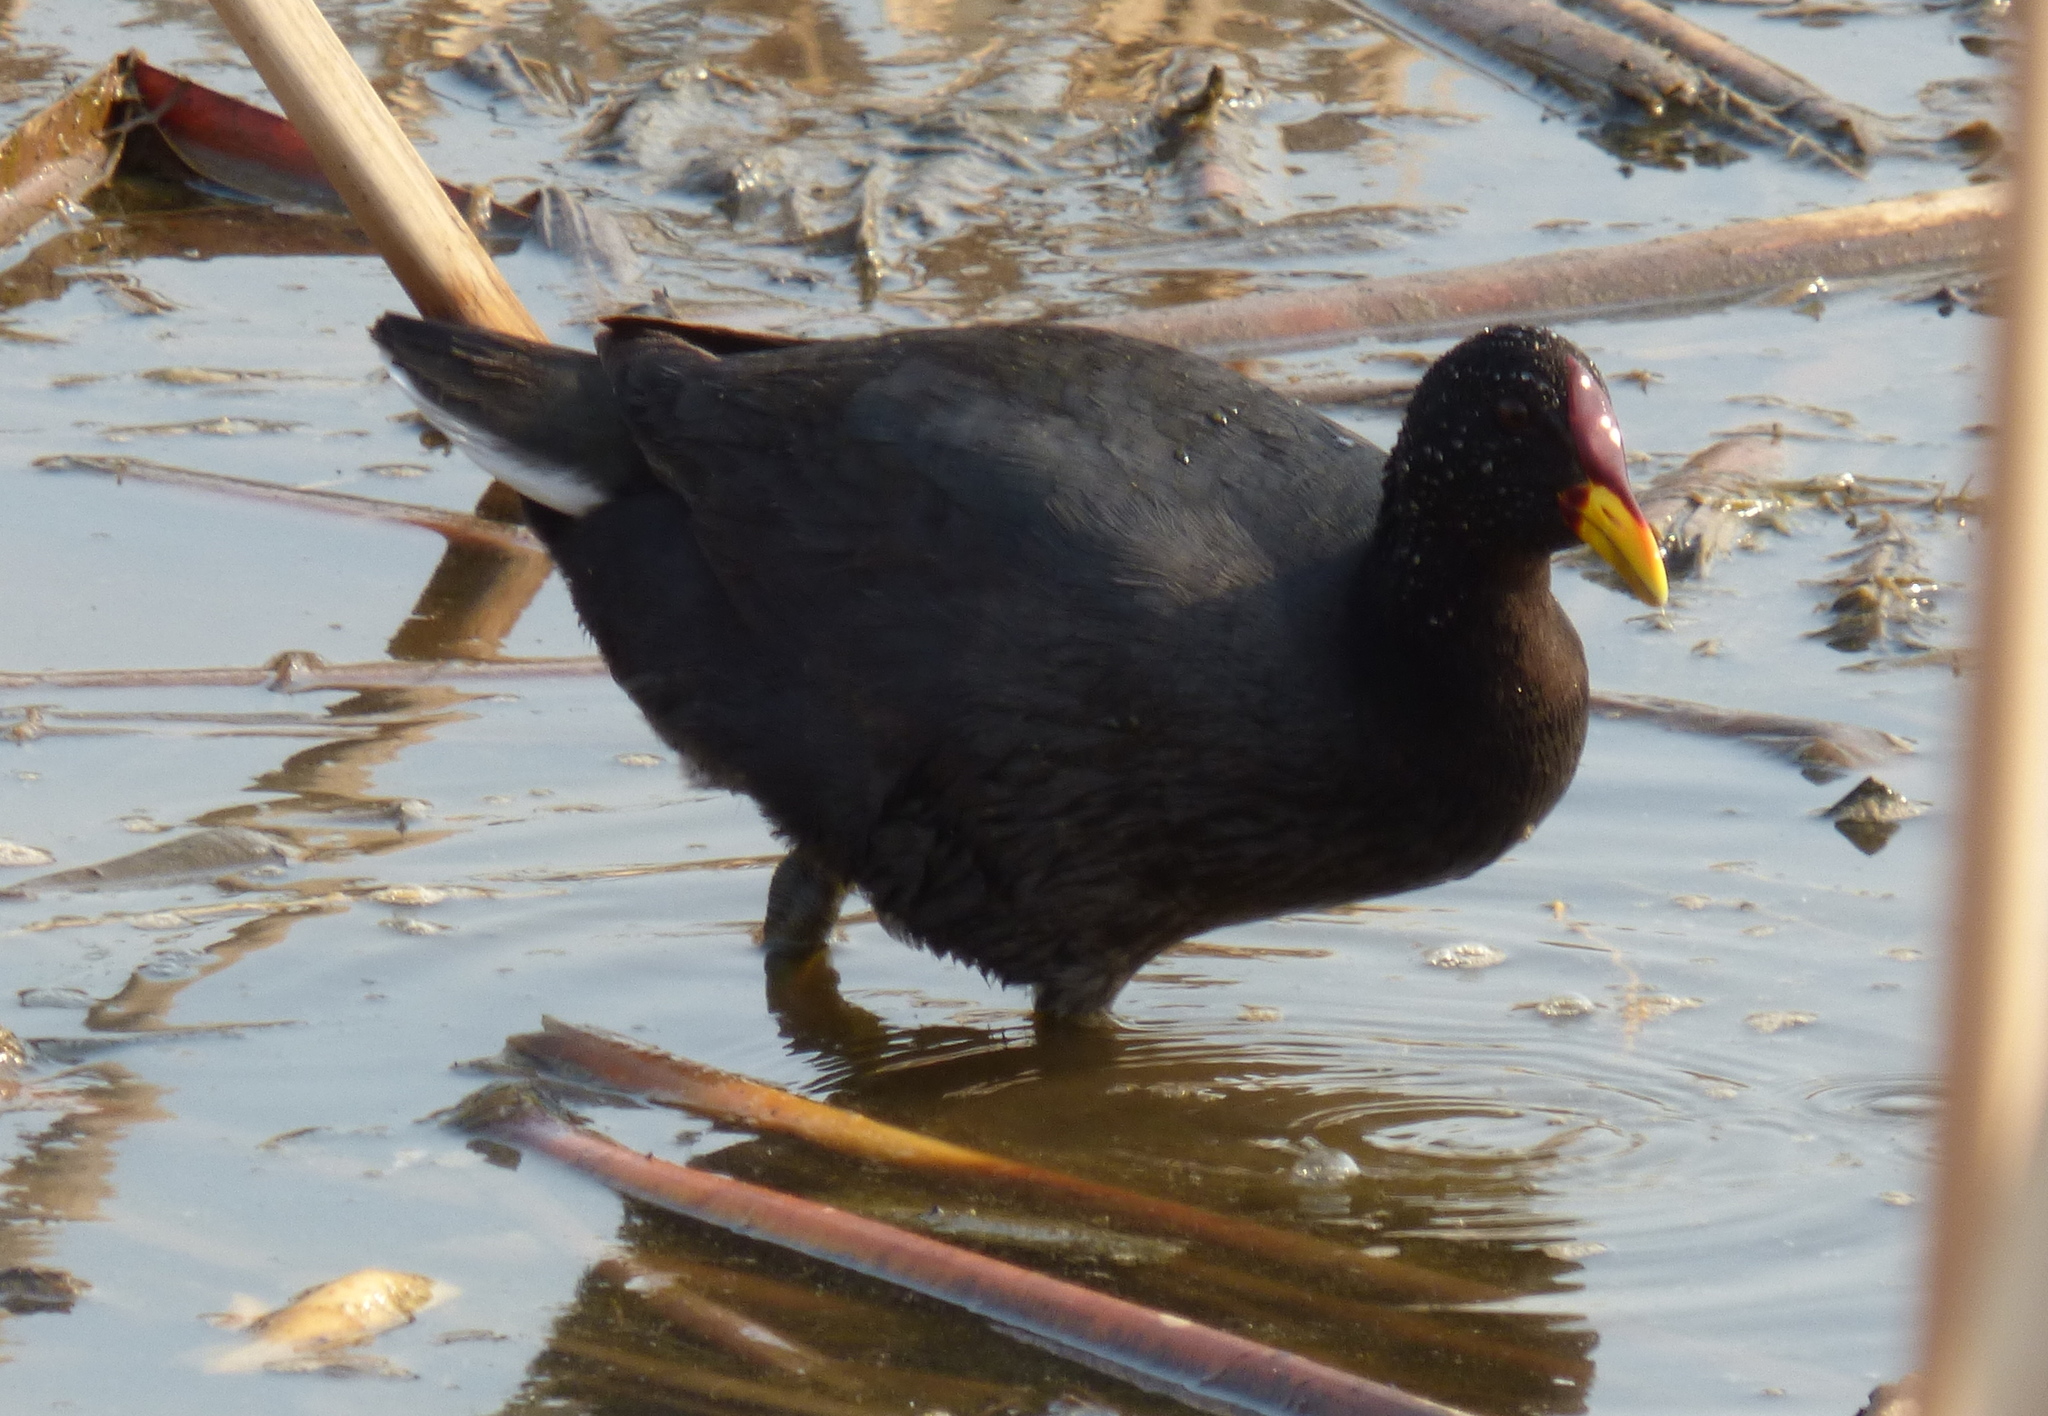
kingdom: Animalia
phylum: Chordata
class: Aves
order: Gruiformes
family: Rallidae
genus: Gallinula
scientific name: Gallinula chloropus
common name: Common moorhen
